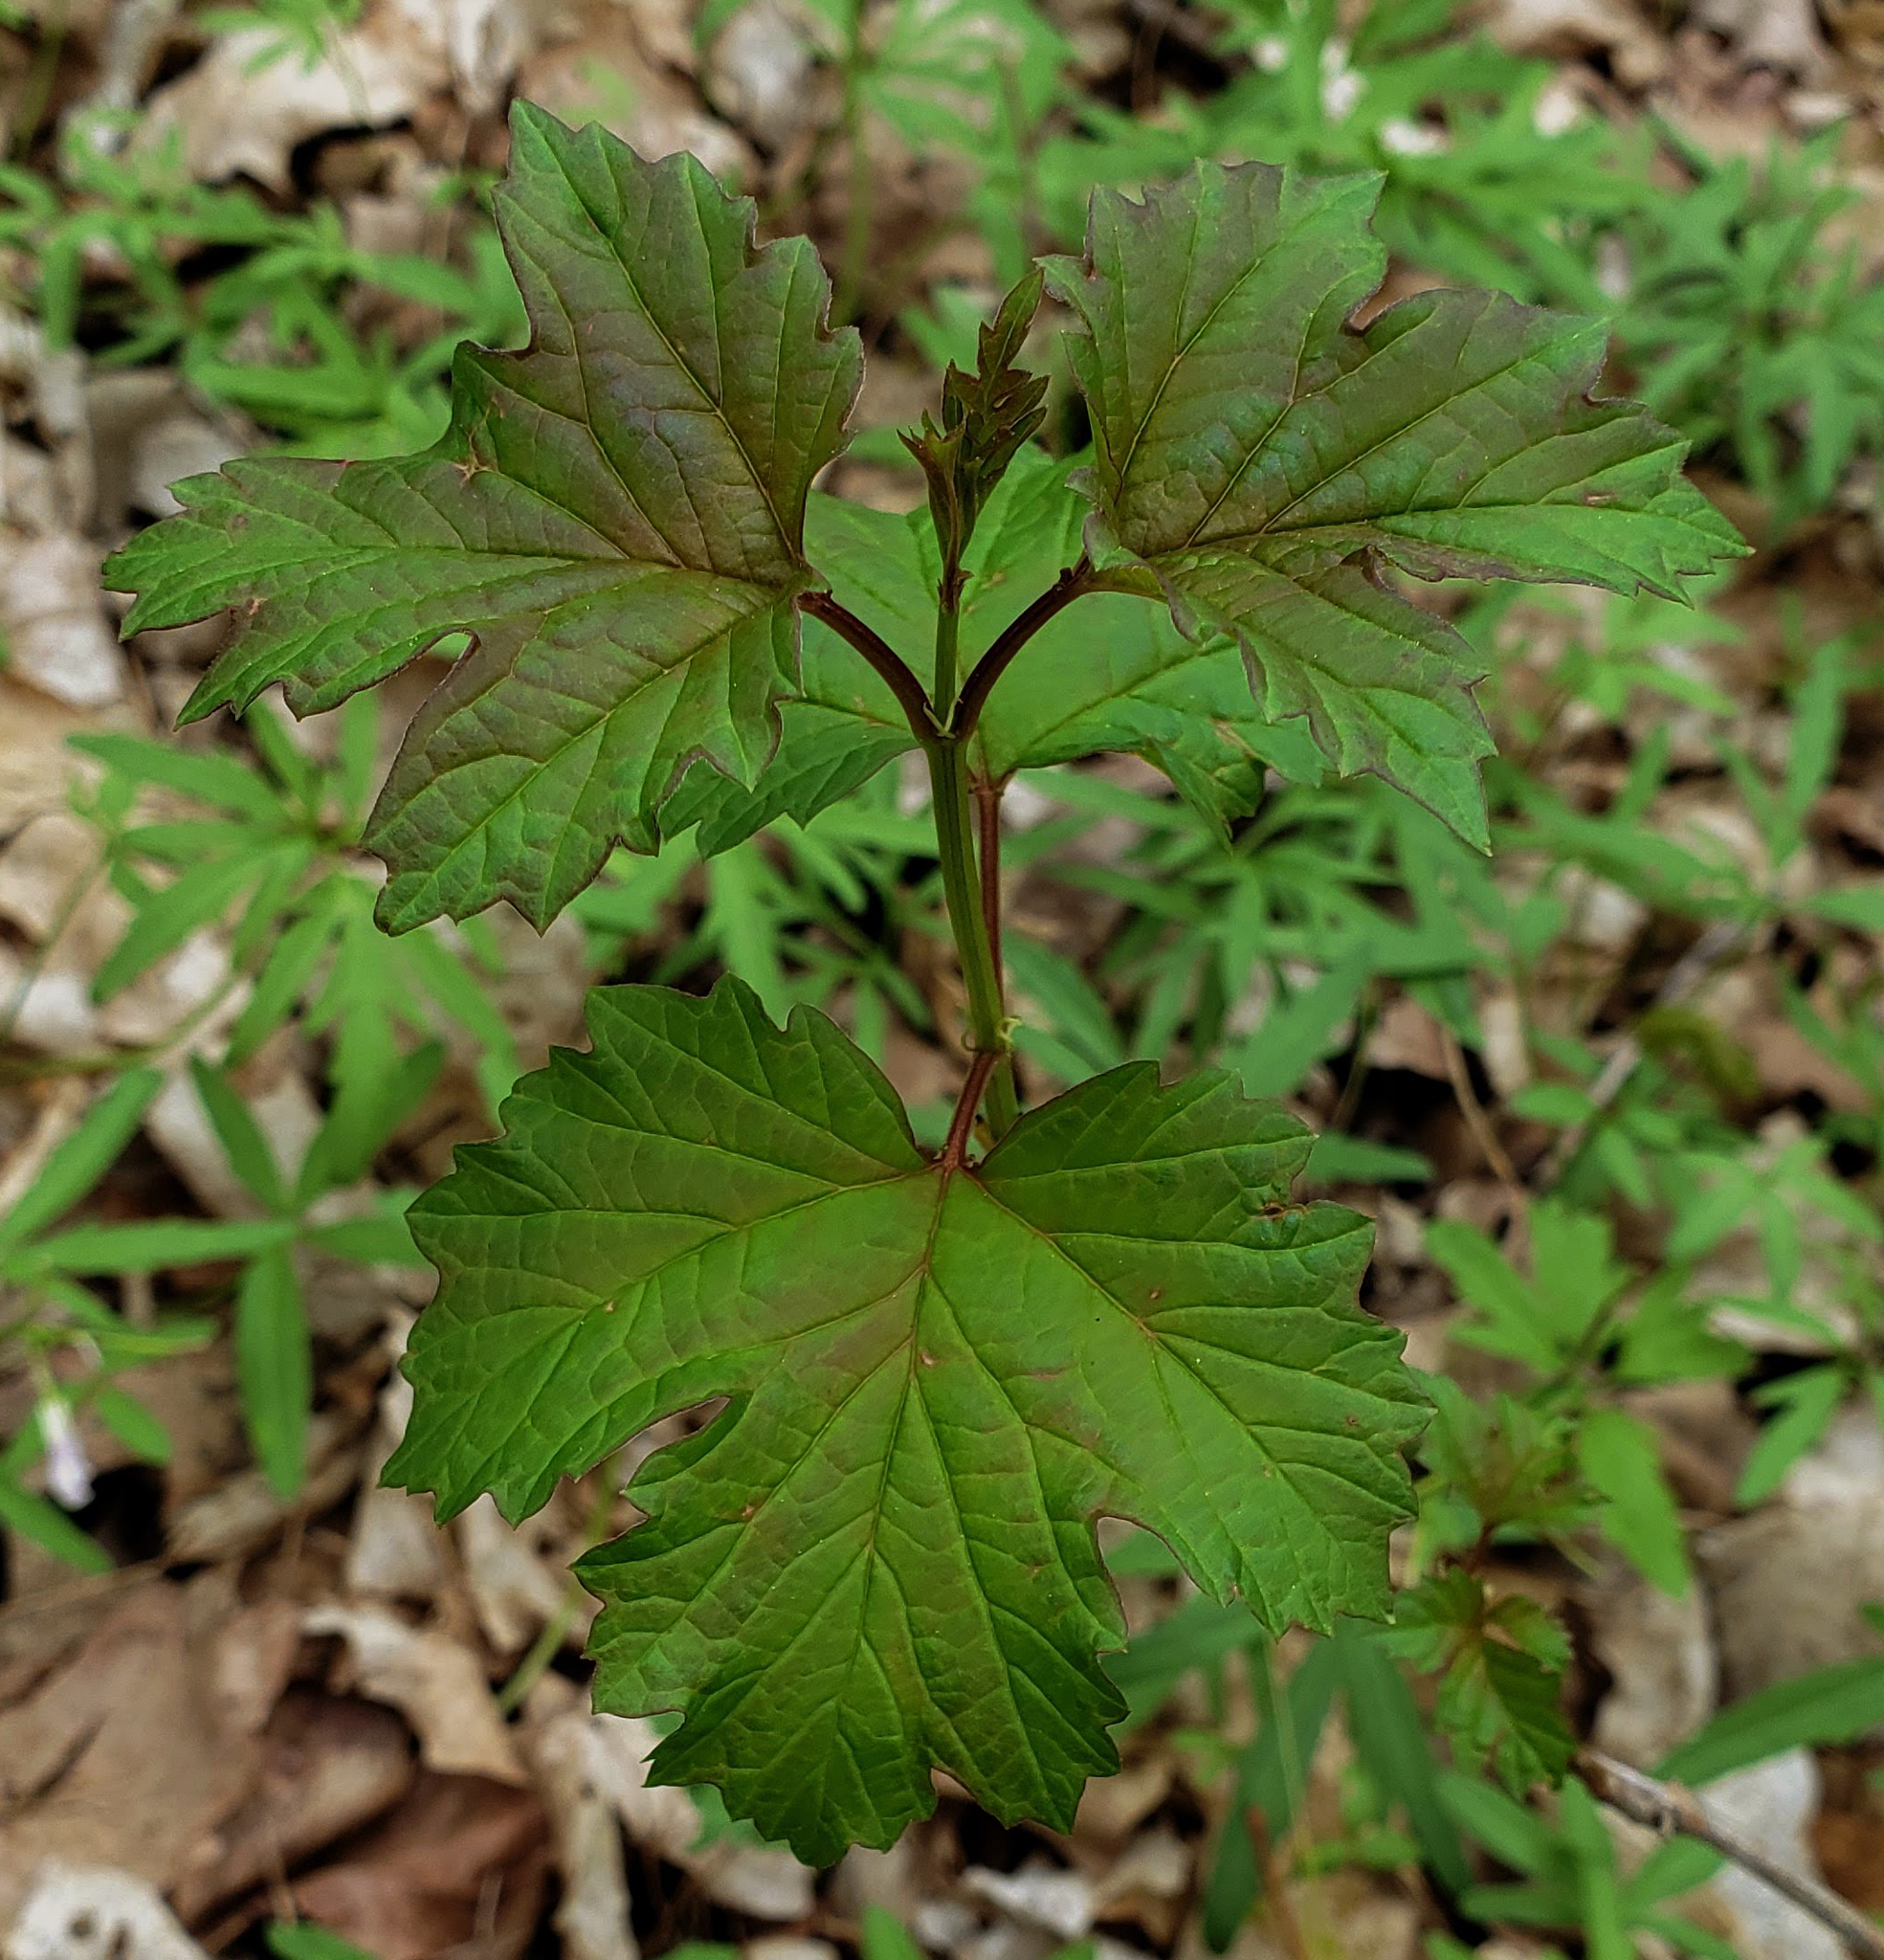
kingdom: Plantae
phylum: Tracheophyta
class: Magnoliopsida
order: Dipsacales
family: Viburnaceae
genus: Viburnum
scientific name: Viburnum opulus
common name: Guelder-rose
